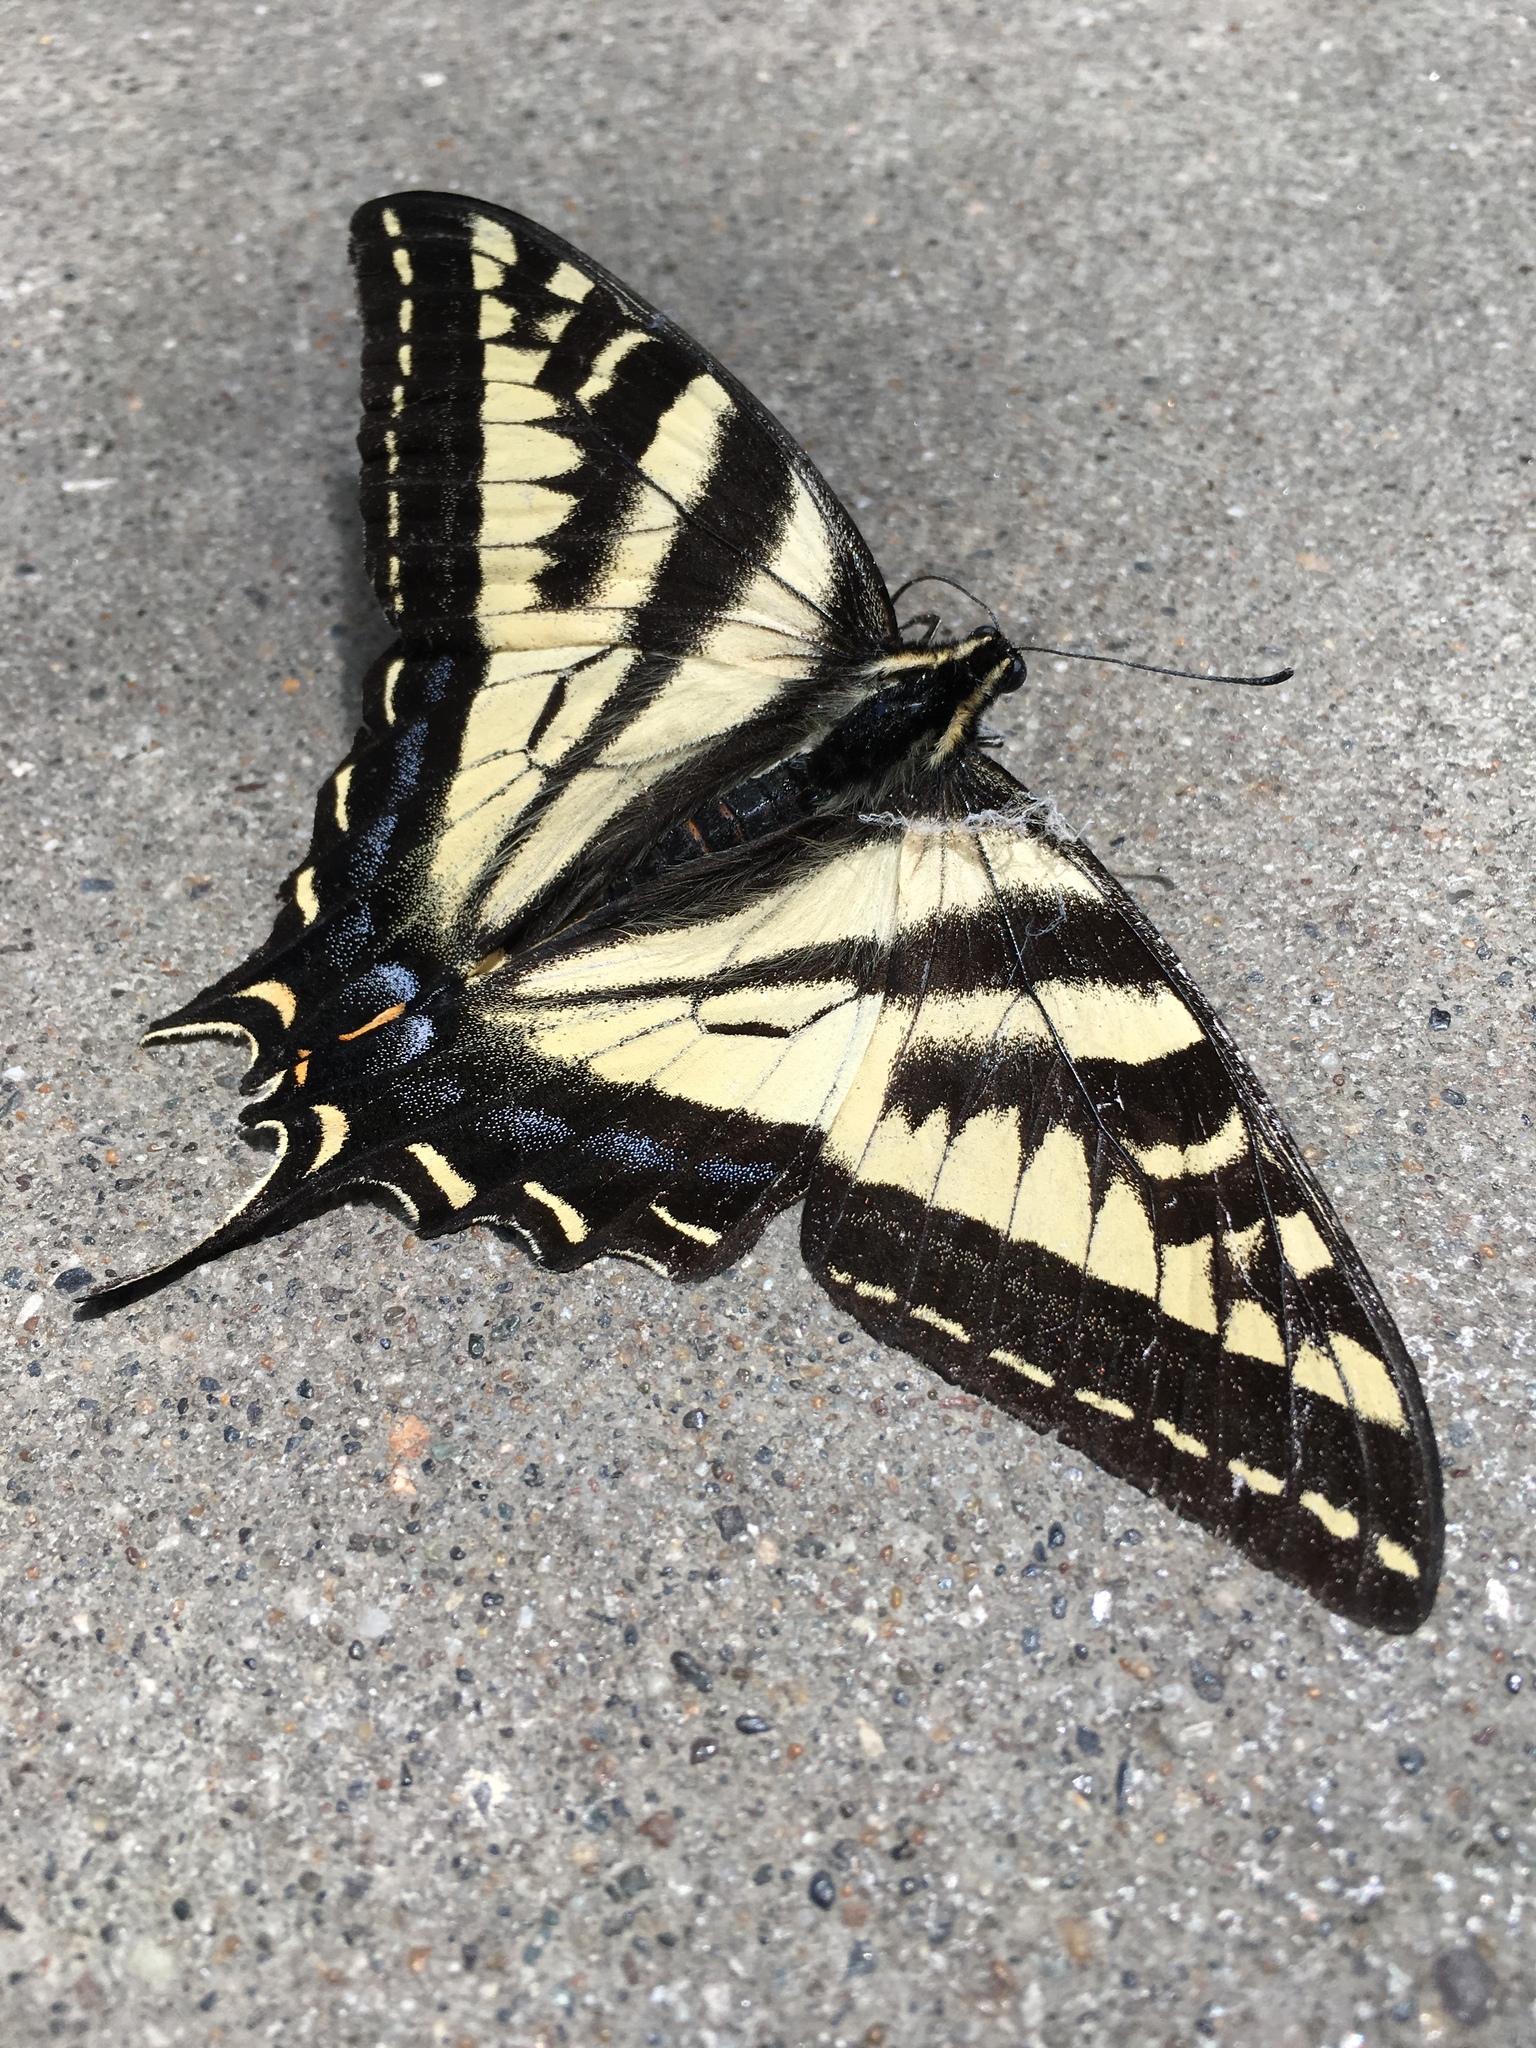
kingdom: Animalia
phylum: Arthropoda
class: Insecta
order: Lepidoptera
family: Papilionidae
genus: Papilio
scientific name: Papilio rutulus
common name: Western tiger swallowtail
